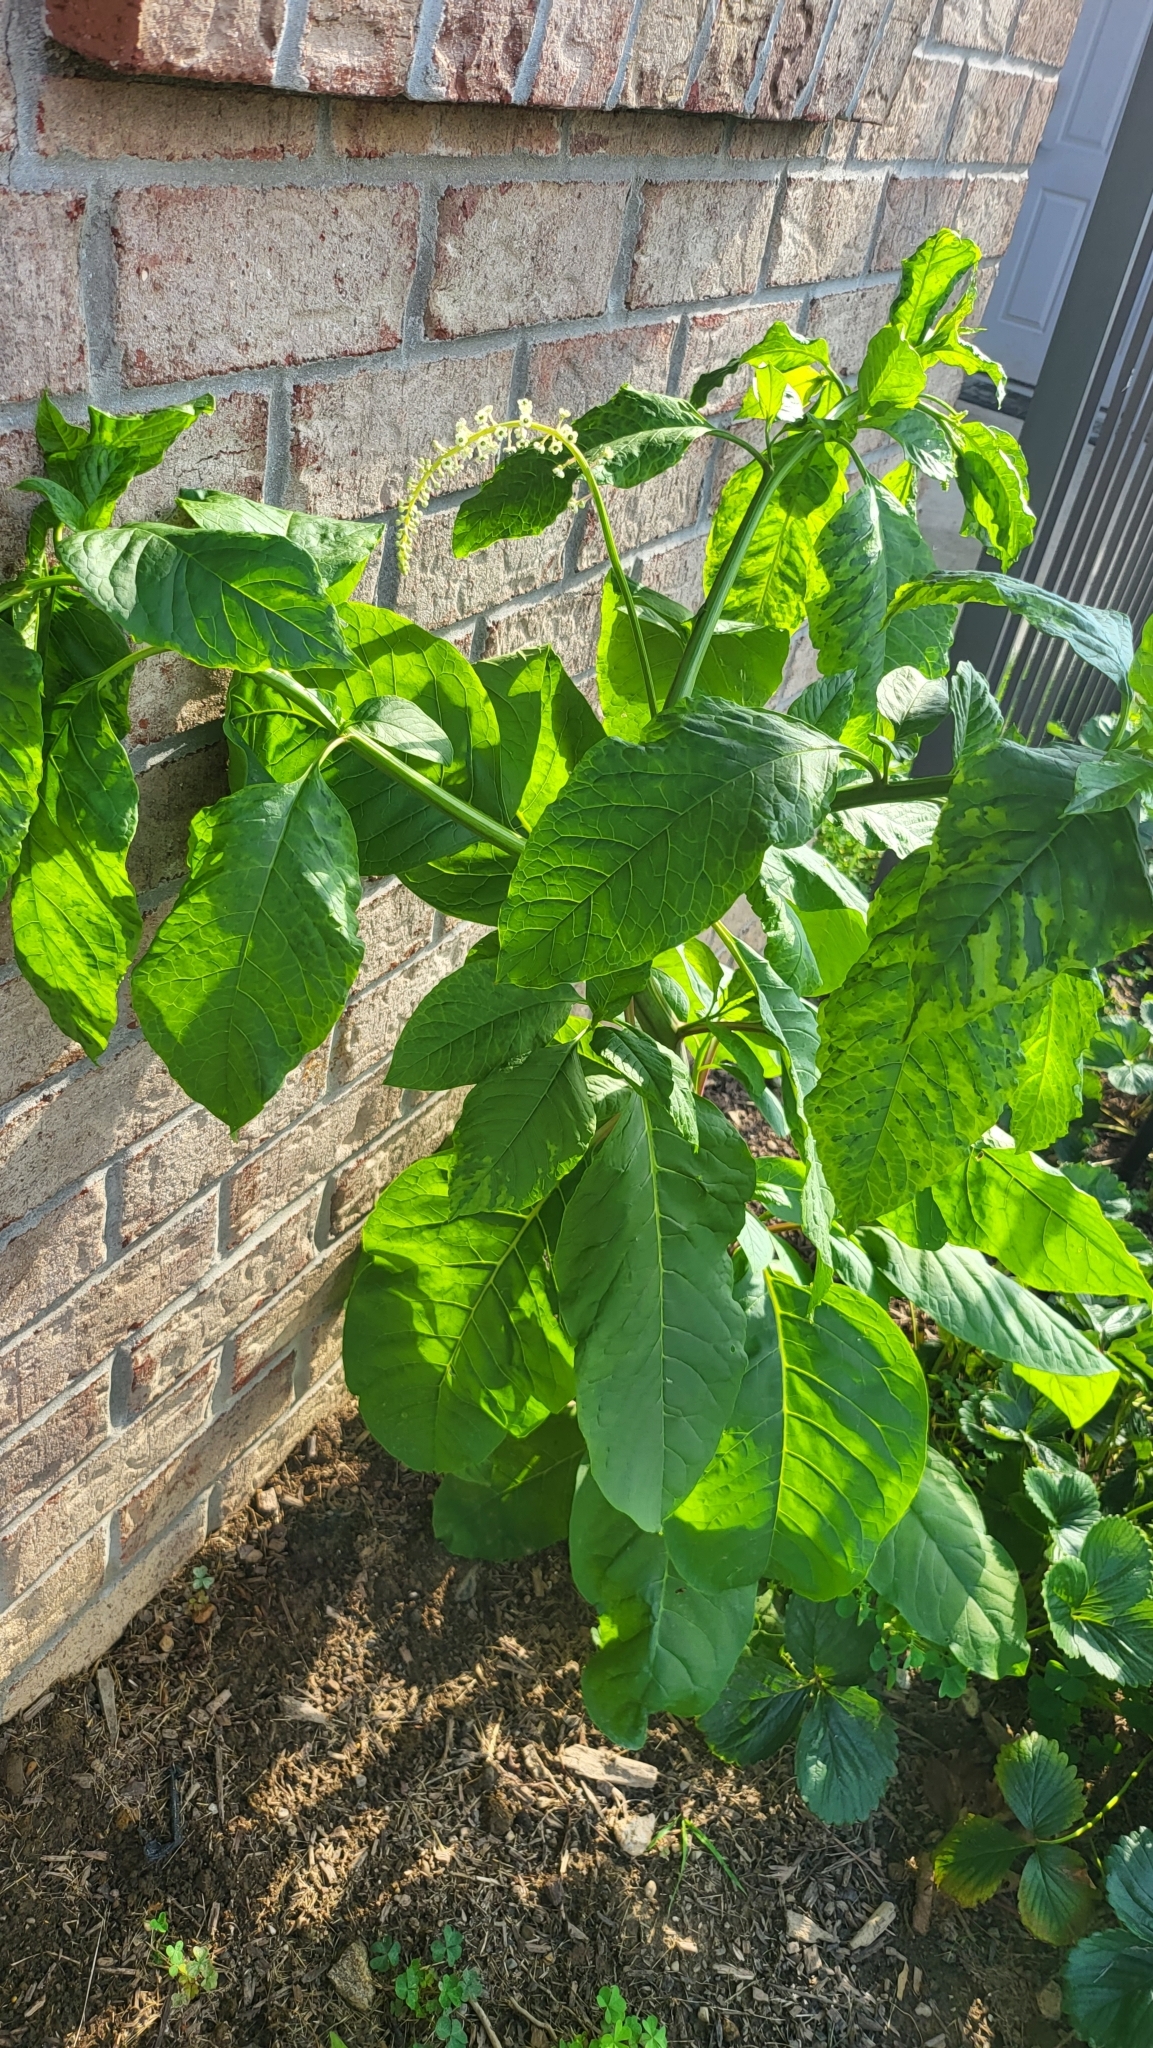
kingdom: Plantae
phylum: Tracheophyta
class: Magnoliopsida
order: Caryophyllales
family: Phytolaccaceae
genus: Phytolacca
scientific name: Phytolacca americana
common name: American pokeweed
